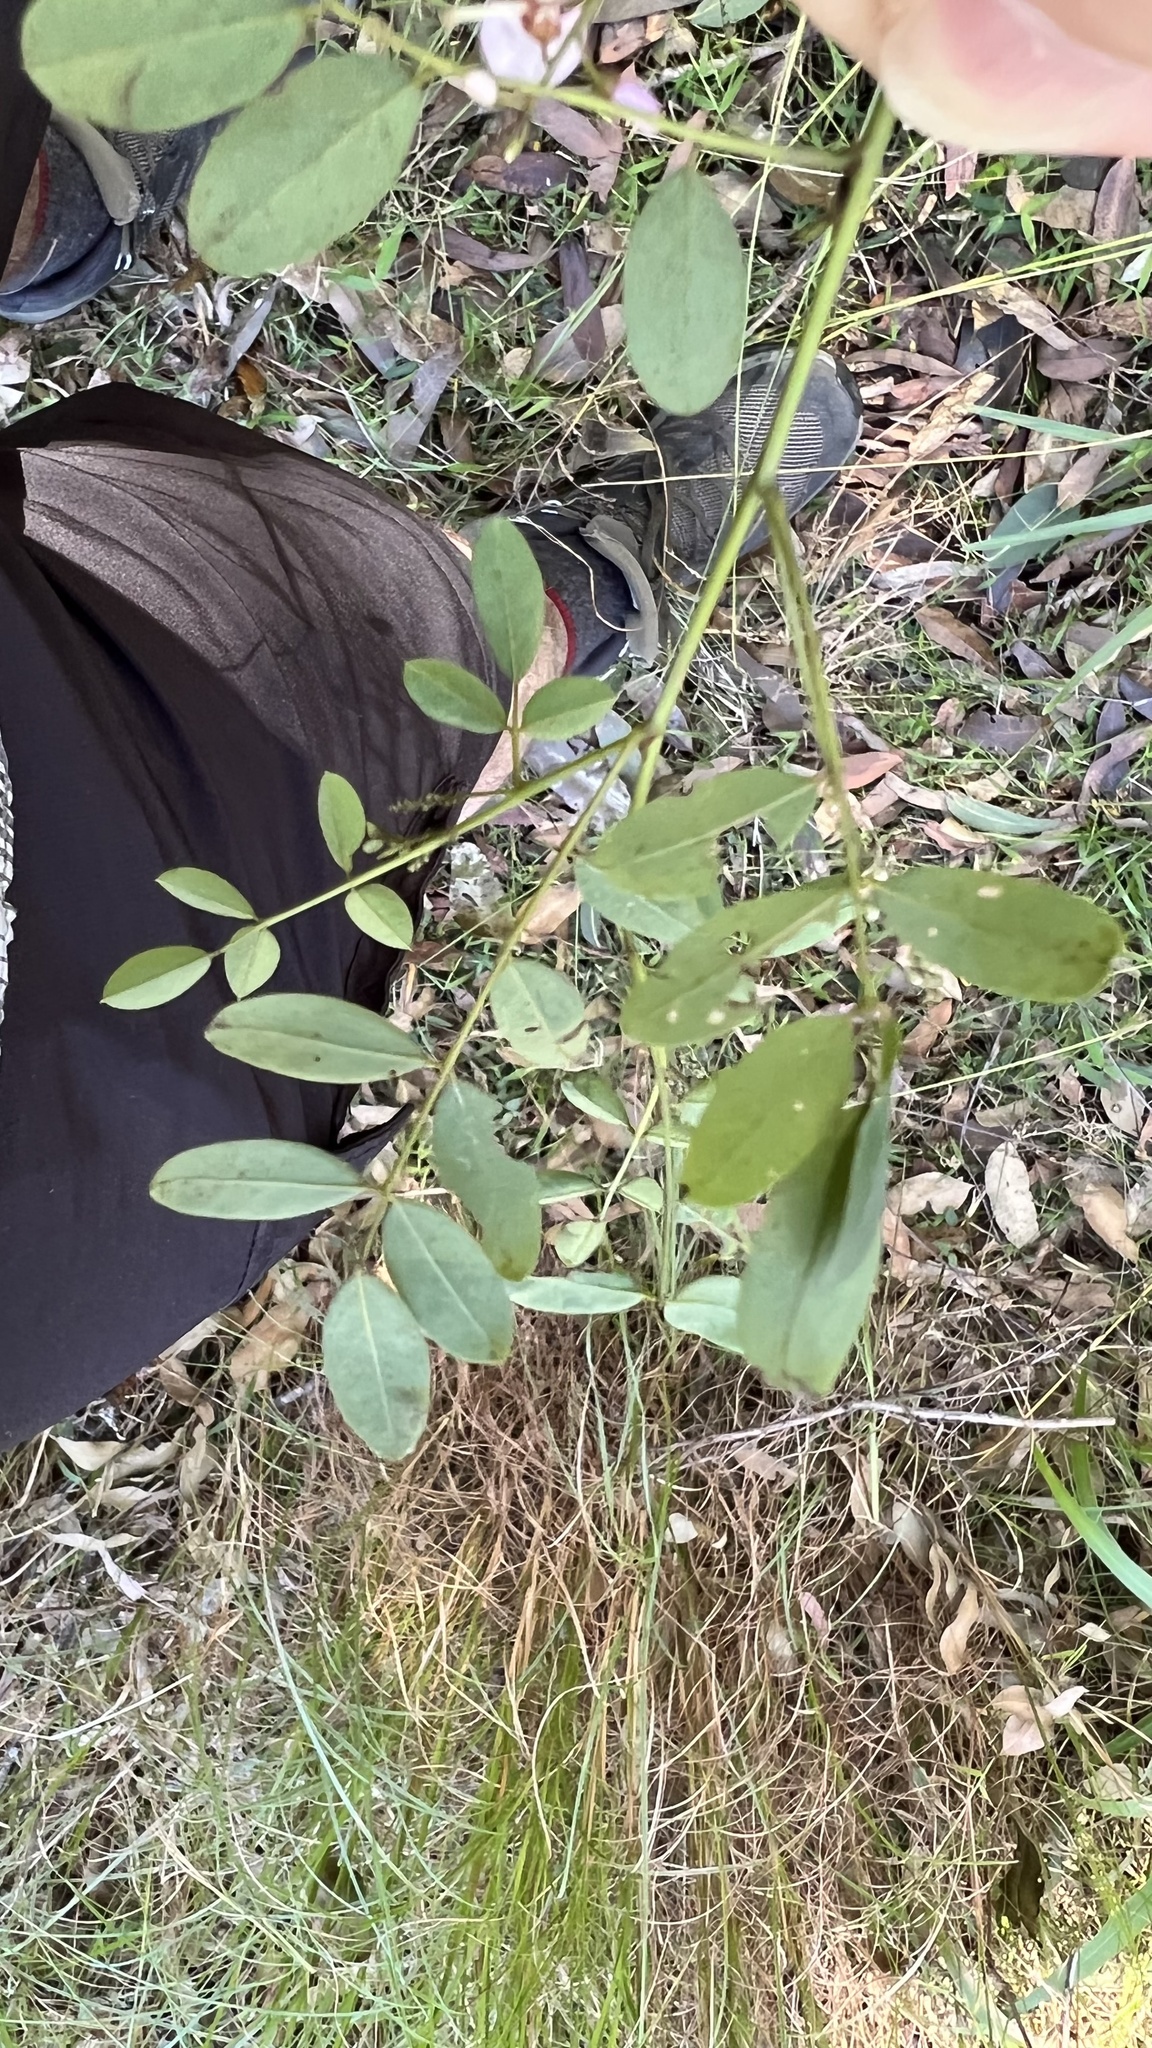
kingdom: Plantae
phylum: Tracheophyta
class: Magnoliopsida
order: Fabales
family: Fabaceae
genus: Indigofera
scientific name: Indigofera australis
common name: Australian indigo
